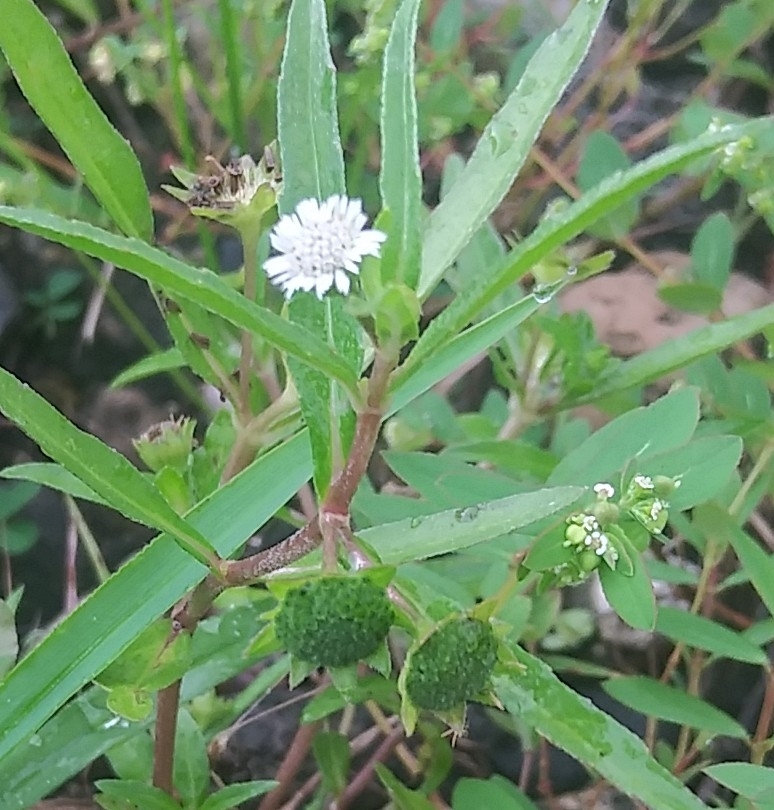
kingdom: Plantae
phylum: Tracheophyta
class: Magnoliopsida
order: Asterales
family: Asteraceae
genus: Eclipta
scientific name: Eclipta prostrata
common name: False daisy
